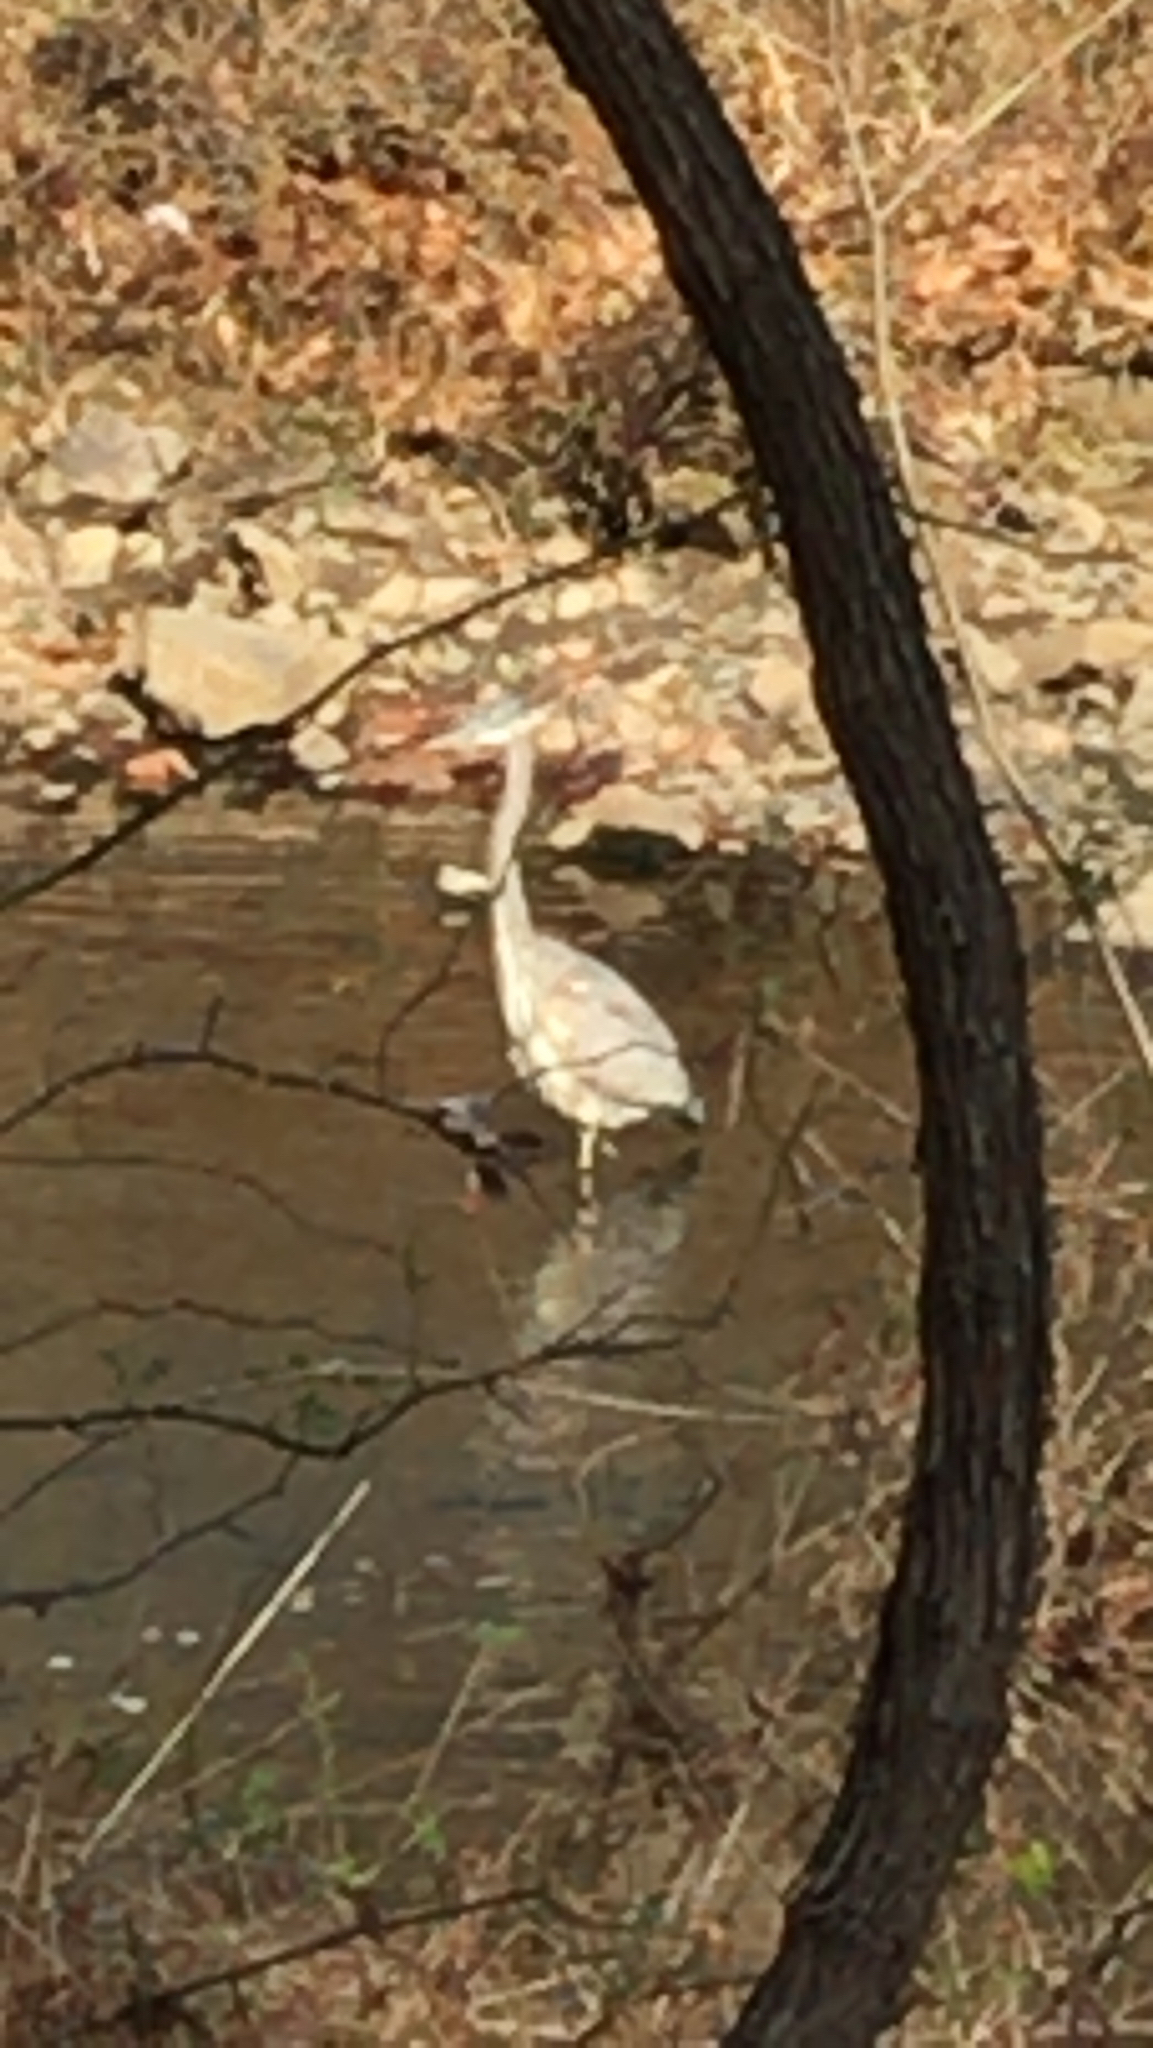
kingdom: Animalia
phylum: Chordata
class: Aves
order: Pelecaniformes
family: Ardeidae
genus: Ardea
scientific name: Ardea herodias
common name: Great blue heron
